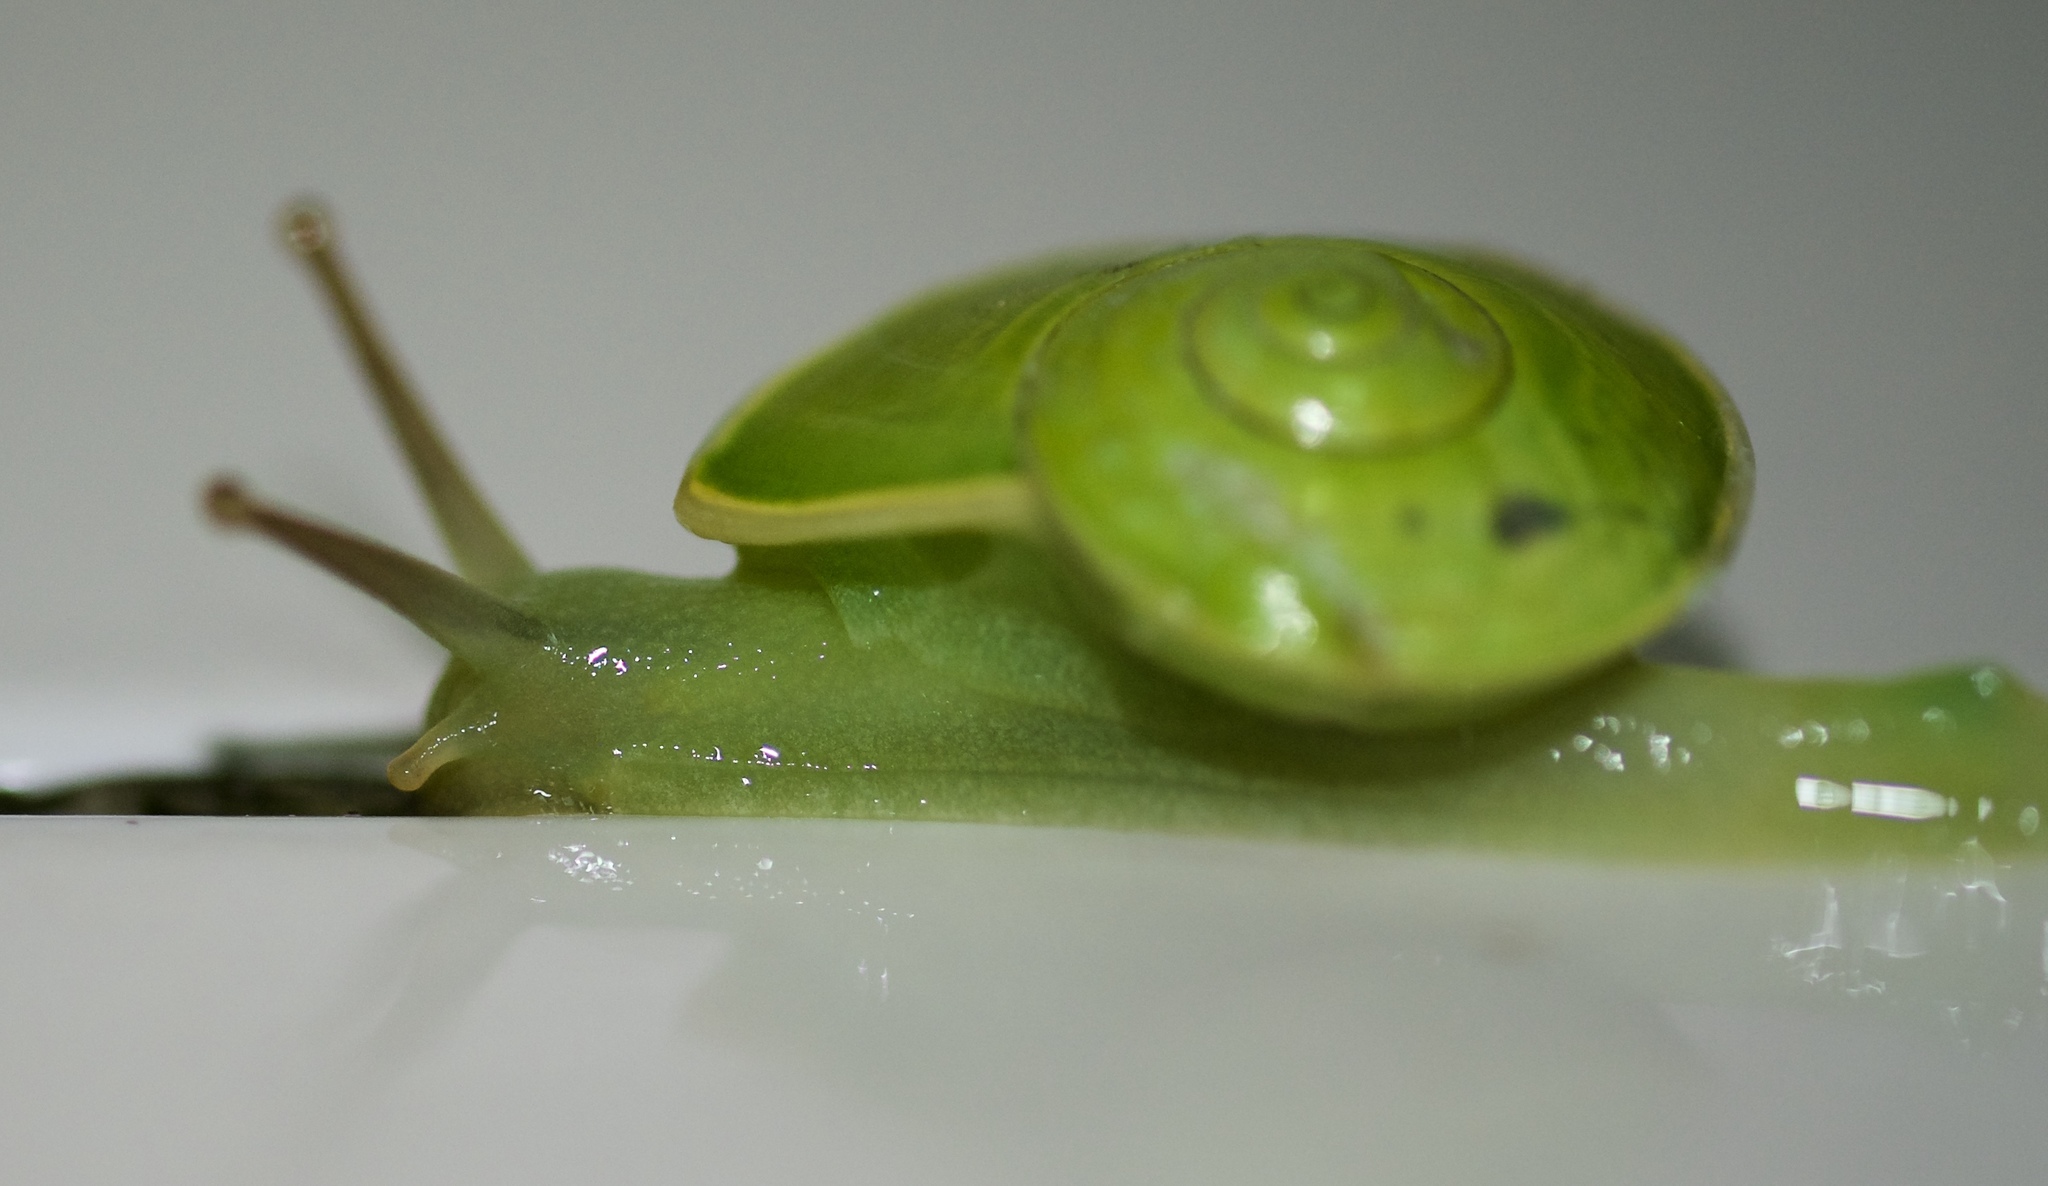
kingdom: Animalia
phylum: Mollusca
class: Gastropoda
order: Stylommatophora
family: Dyakiidae
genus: Rhinocochlis
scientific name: Rhinocochlis
